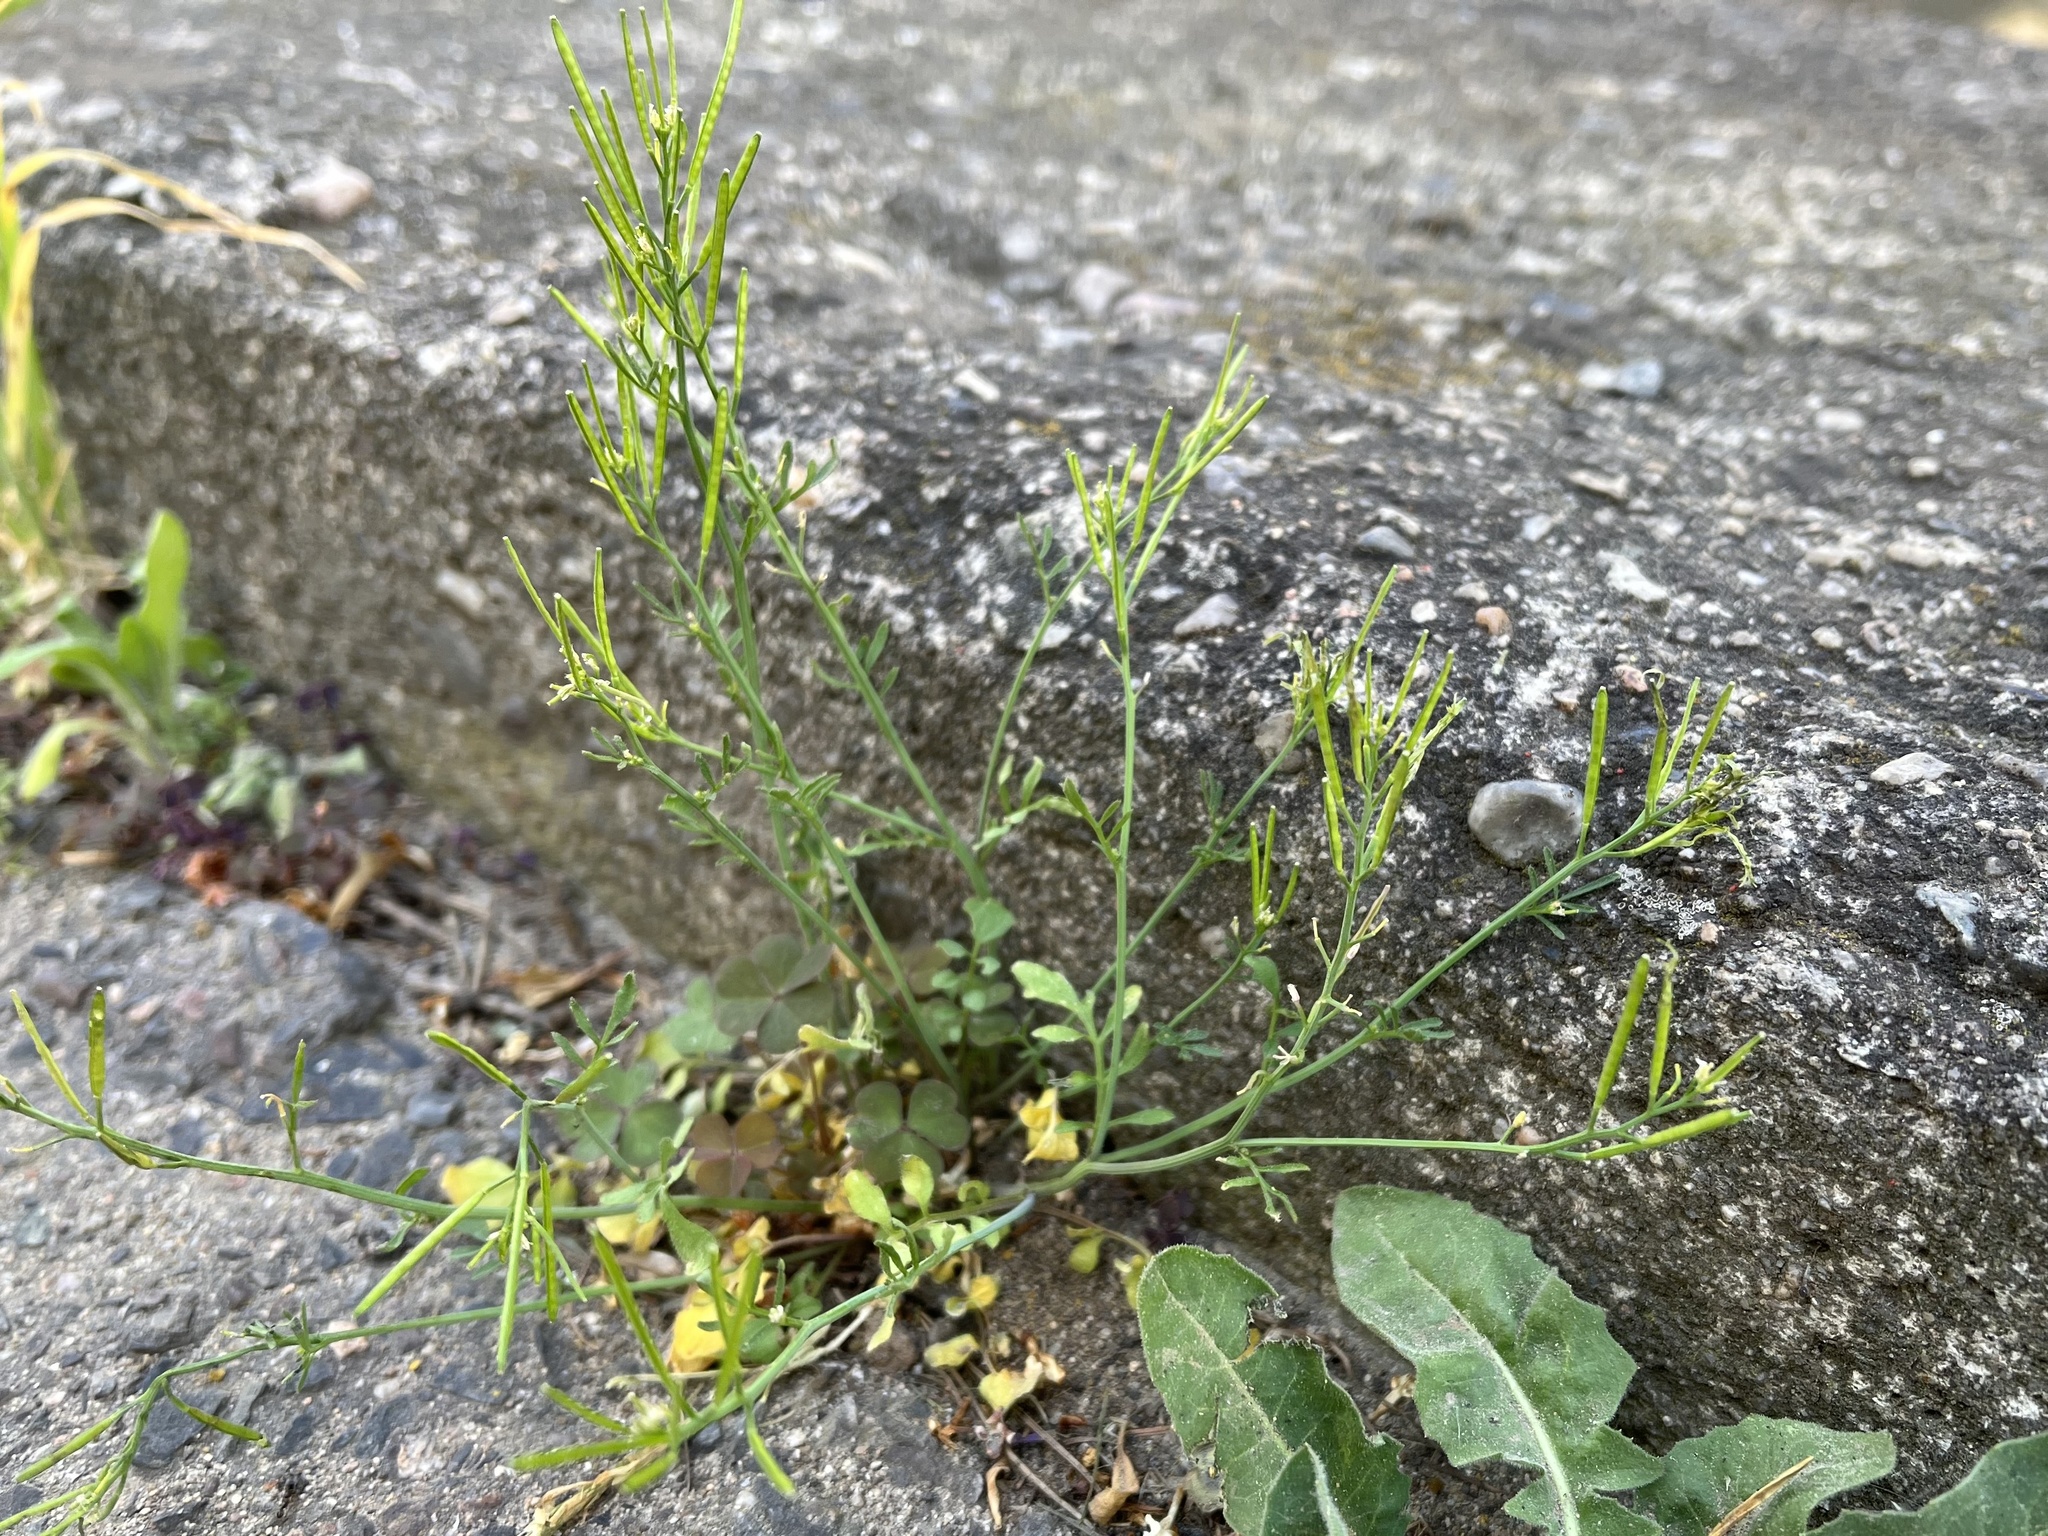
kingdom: Plantae
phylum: Tracheophyta
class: Magnoliopsida
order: Brassicales
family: Brassicaceae
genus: Cardamine
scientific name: Cardamine hirsuta
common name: Hairy bittercress
